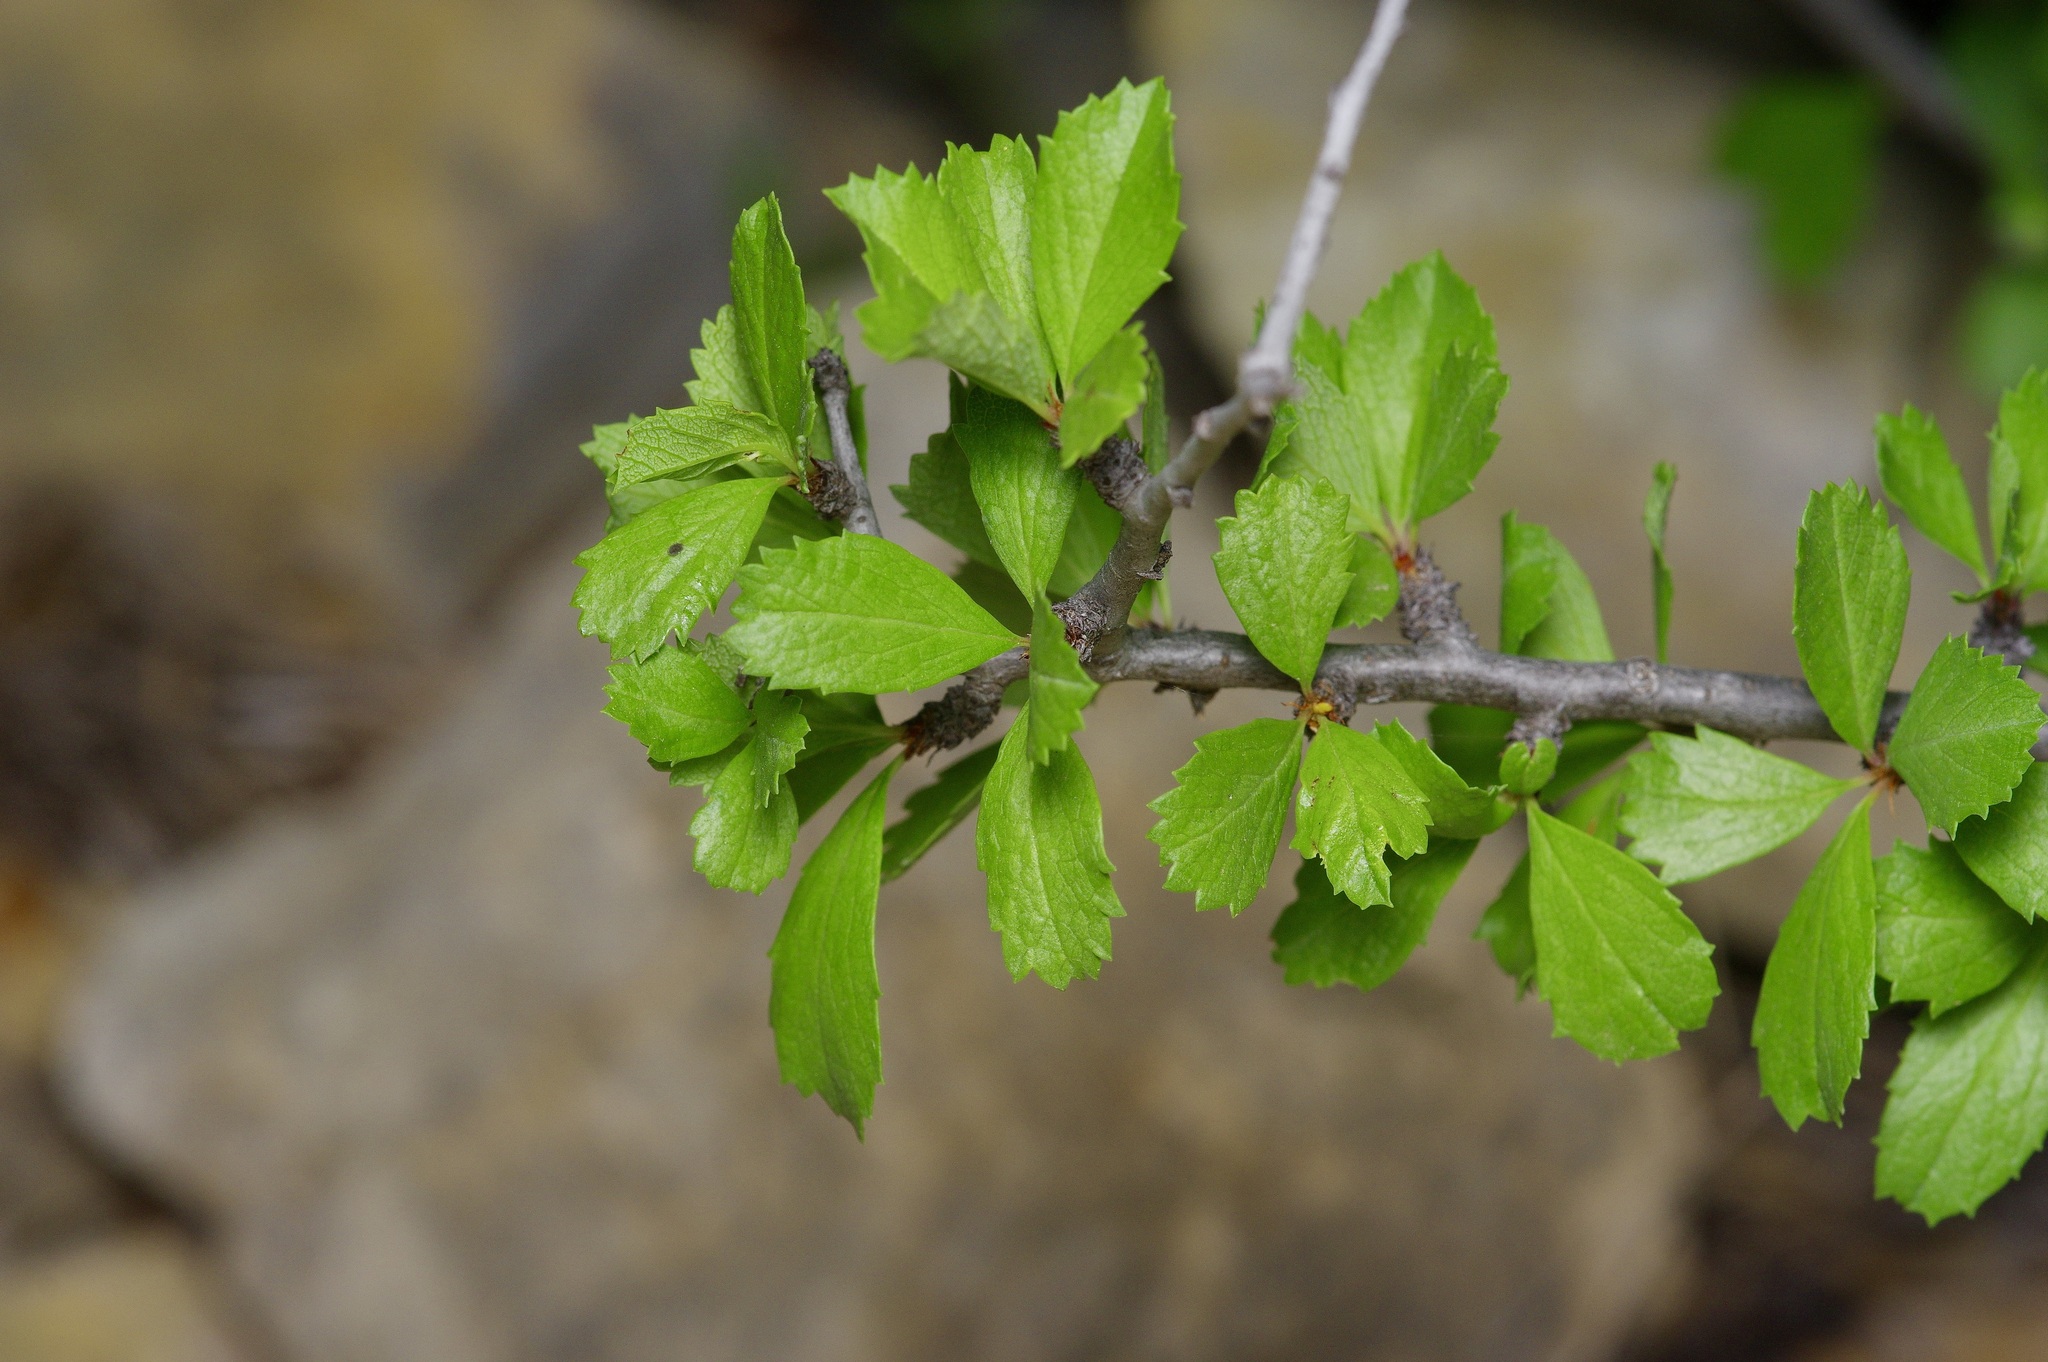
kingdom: Plantae
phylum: Tracheophyta
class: Magnoliopsida
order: Rosales
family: Rosaceae
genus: Prunus
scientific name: Prunus havardii
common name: Havard plum
